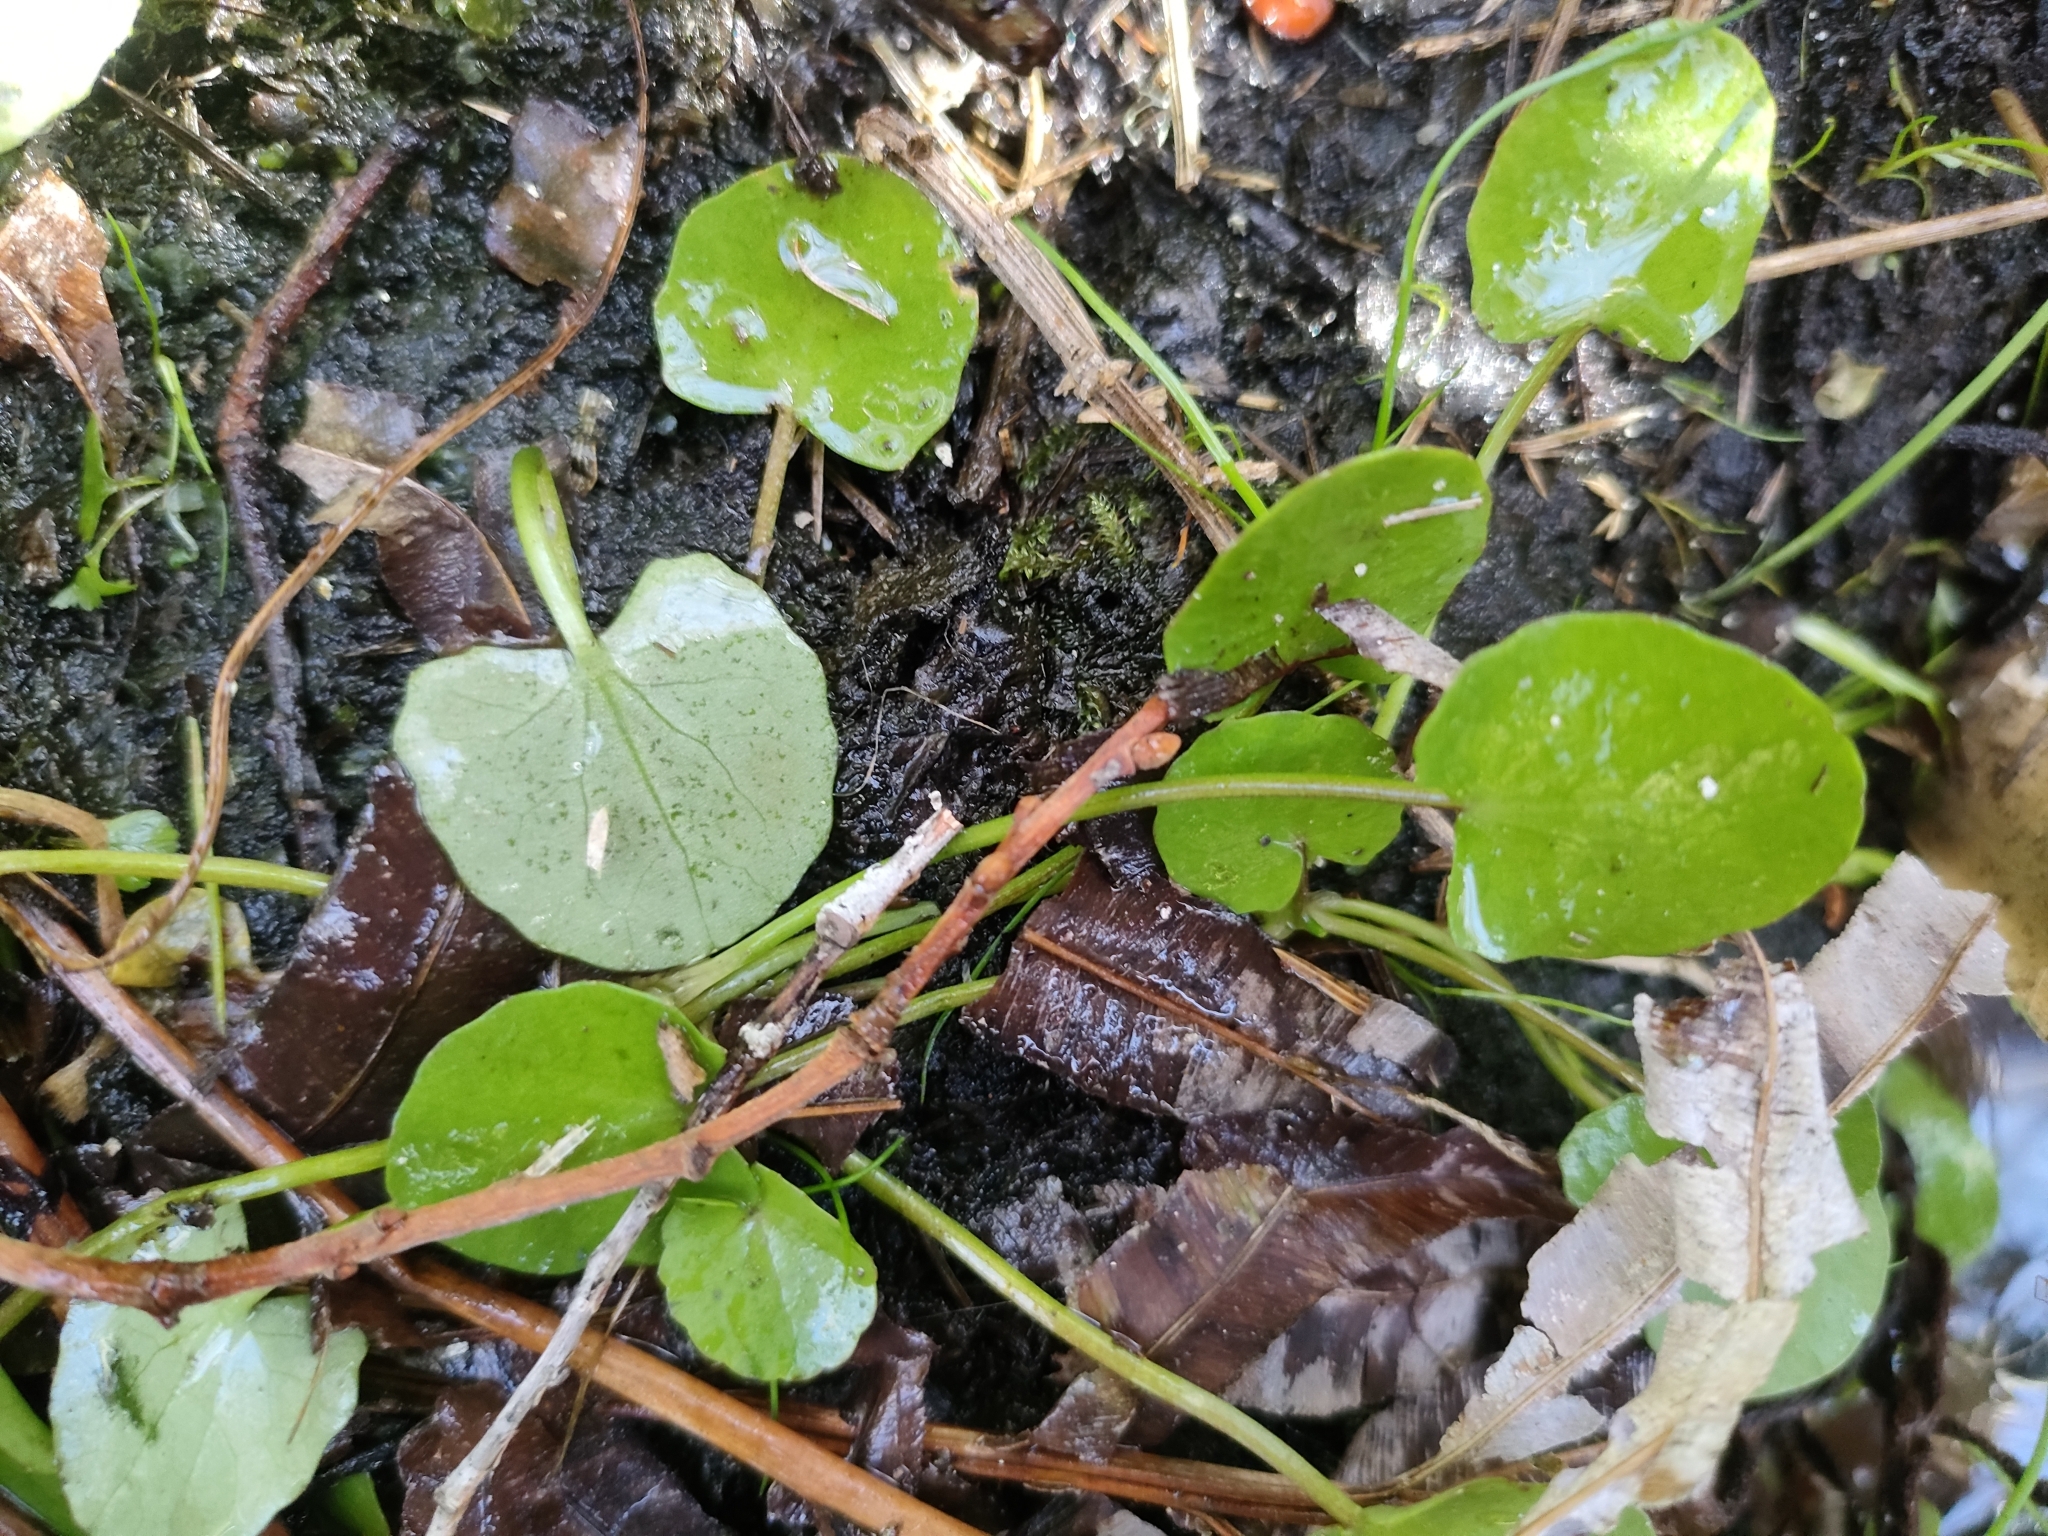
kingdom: Plantae
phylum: Tracheophyta
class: Magnoliopsida
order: Apiales
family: Apiaceae
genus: Centella
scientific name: Centella uniflora
